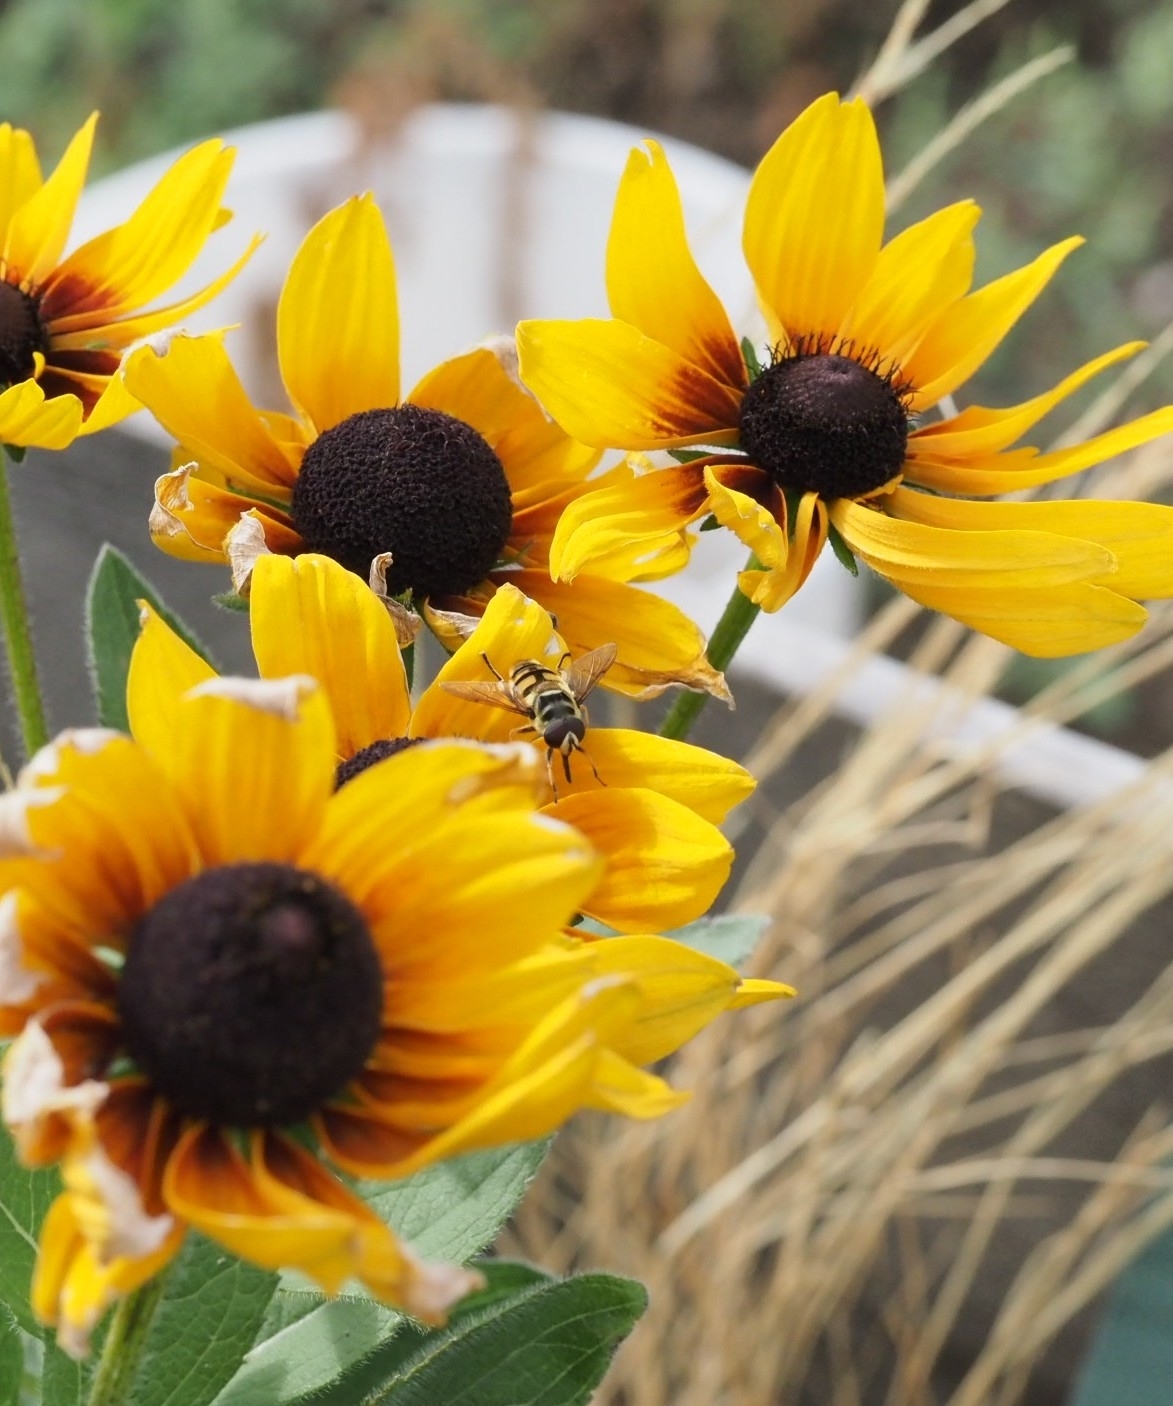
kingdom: Animalia
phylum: Arthropoda
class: Insecta
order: Diptera
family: Syrphidae
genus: Myathropa
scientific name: Myathropa florea
